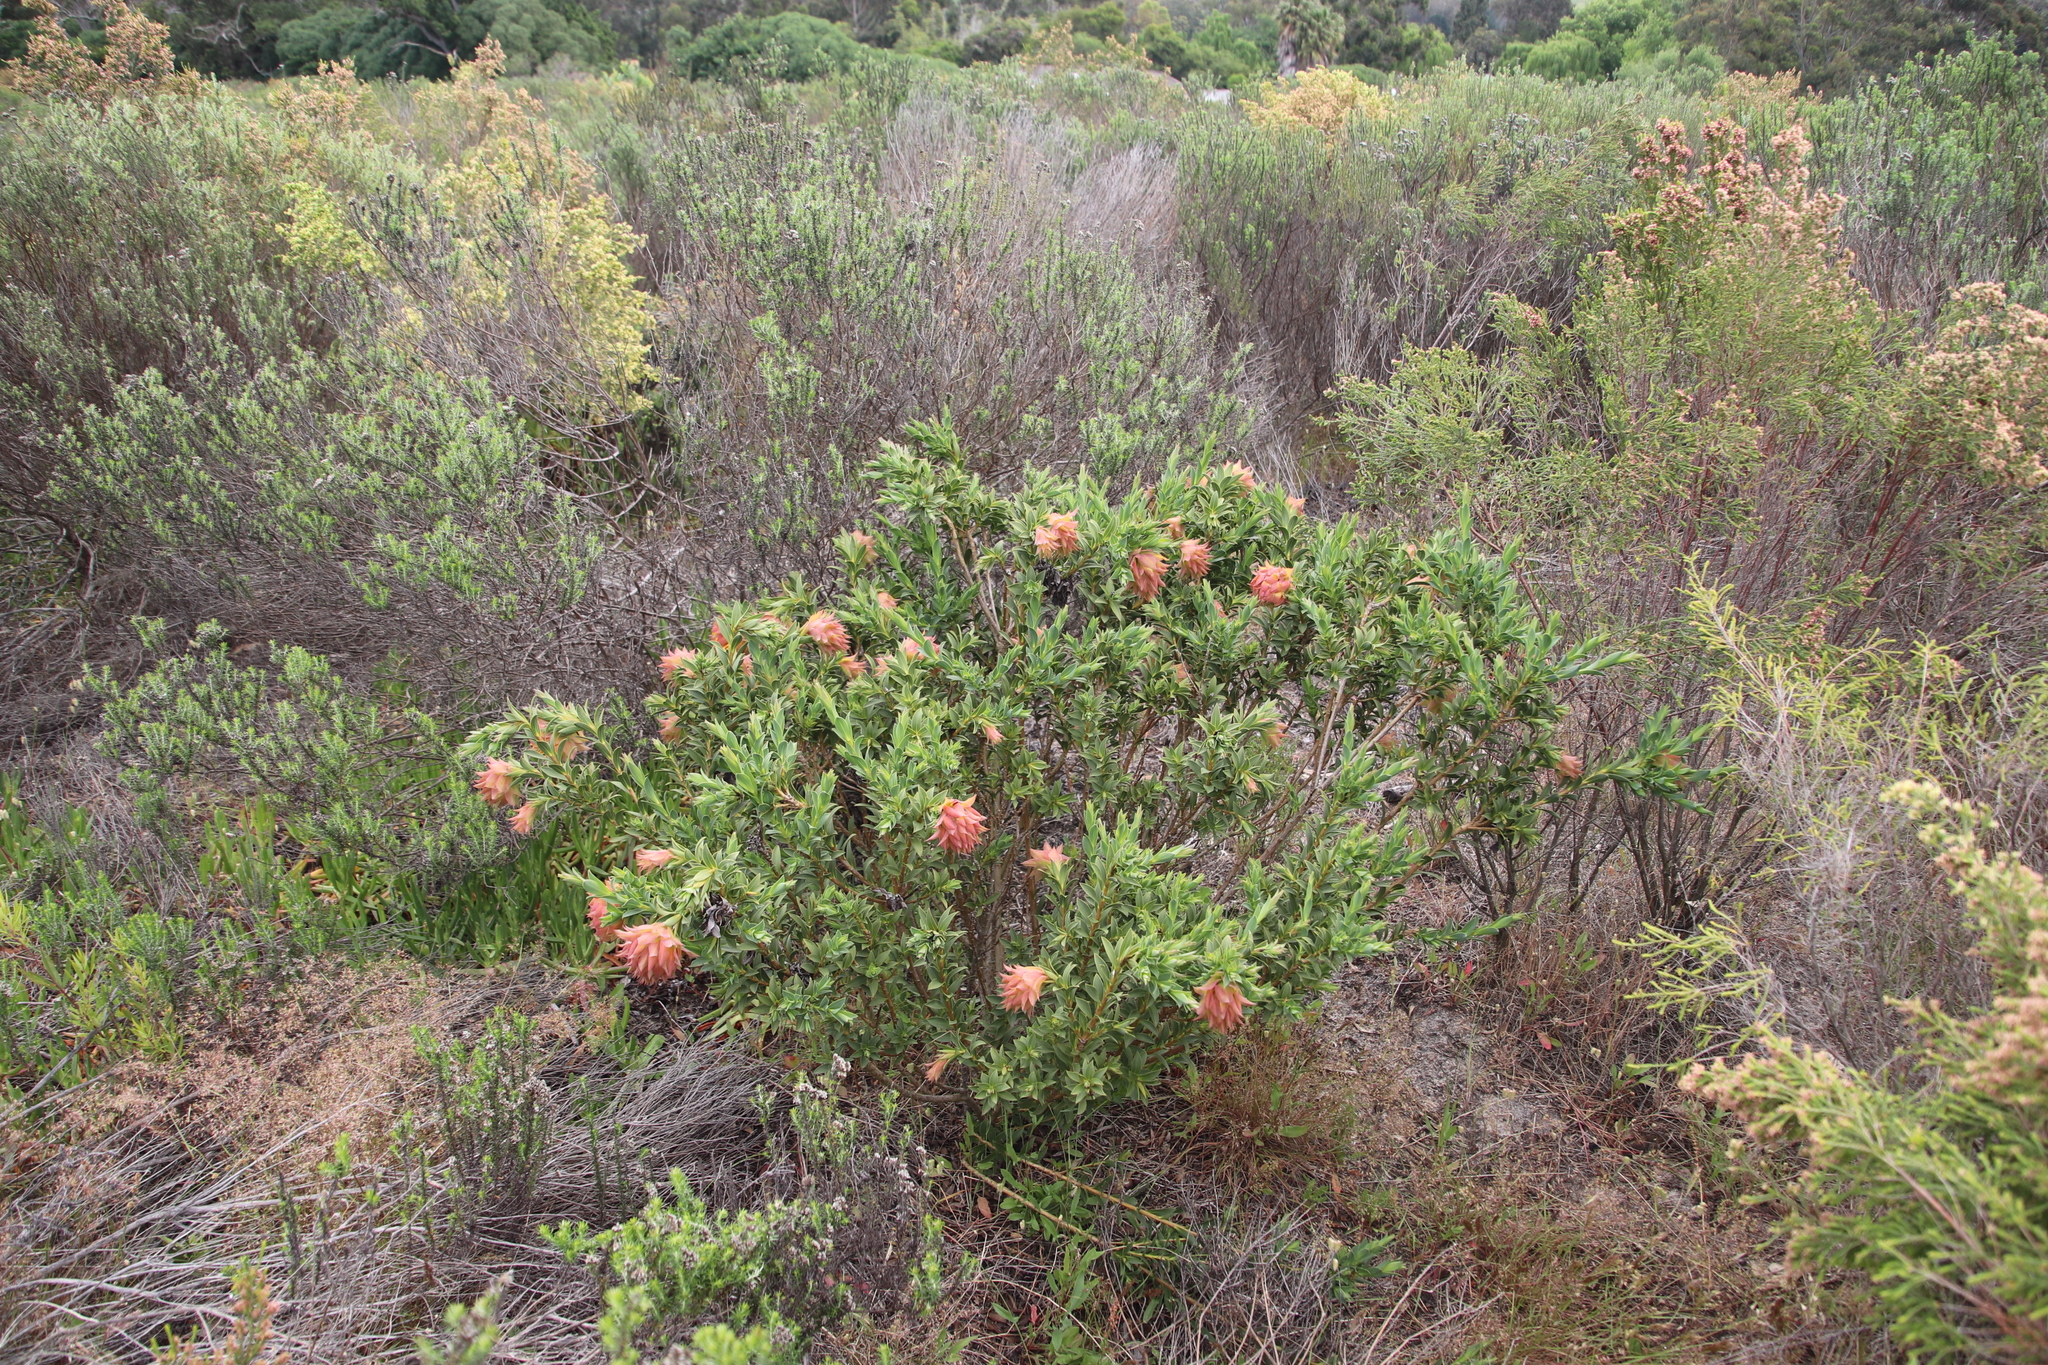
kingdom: Plantae
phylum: Tracheophyta
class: Magnoliopsida
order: Fabales
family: Fabaceae
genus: Liparia
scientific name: Liparia splendens
